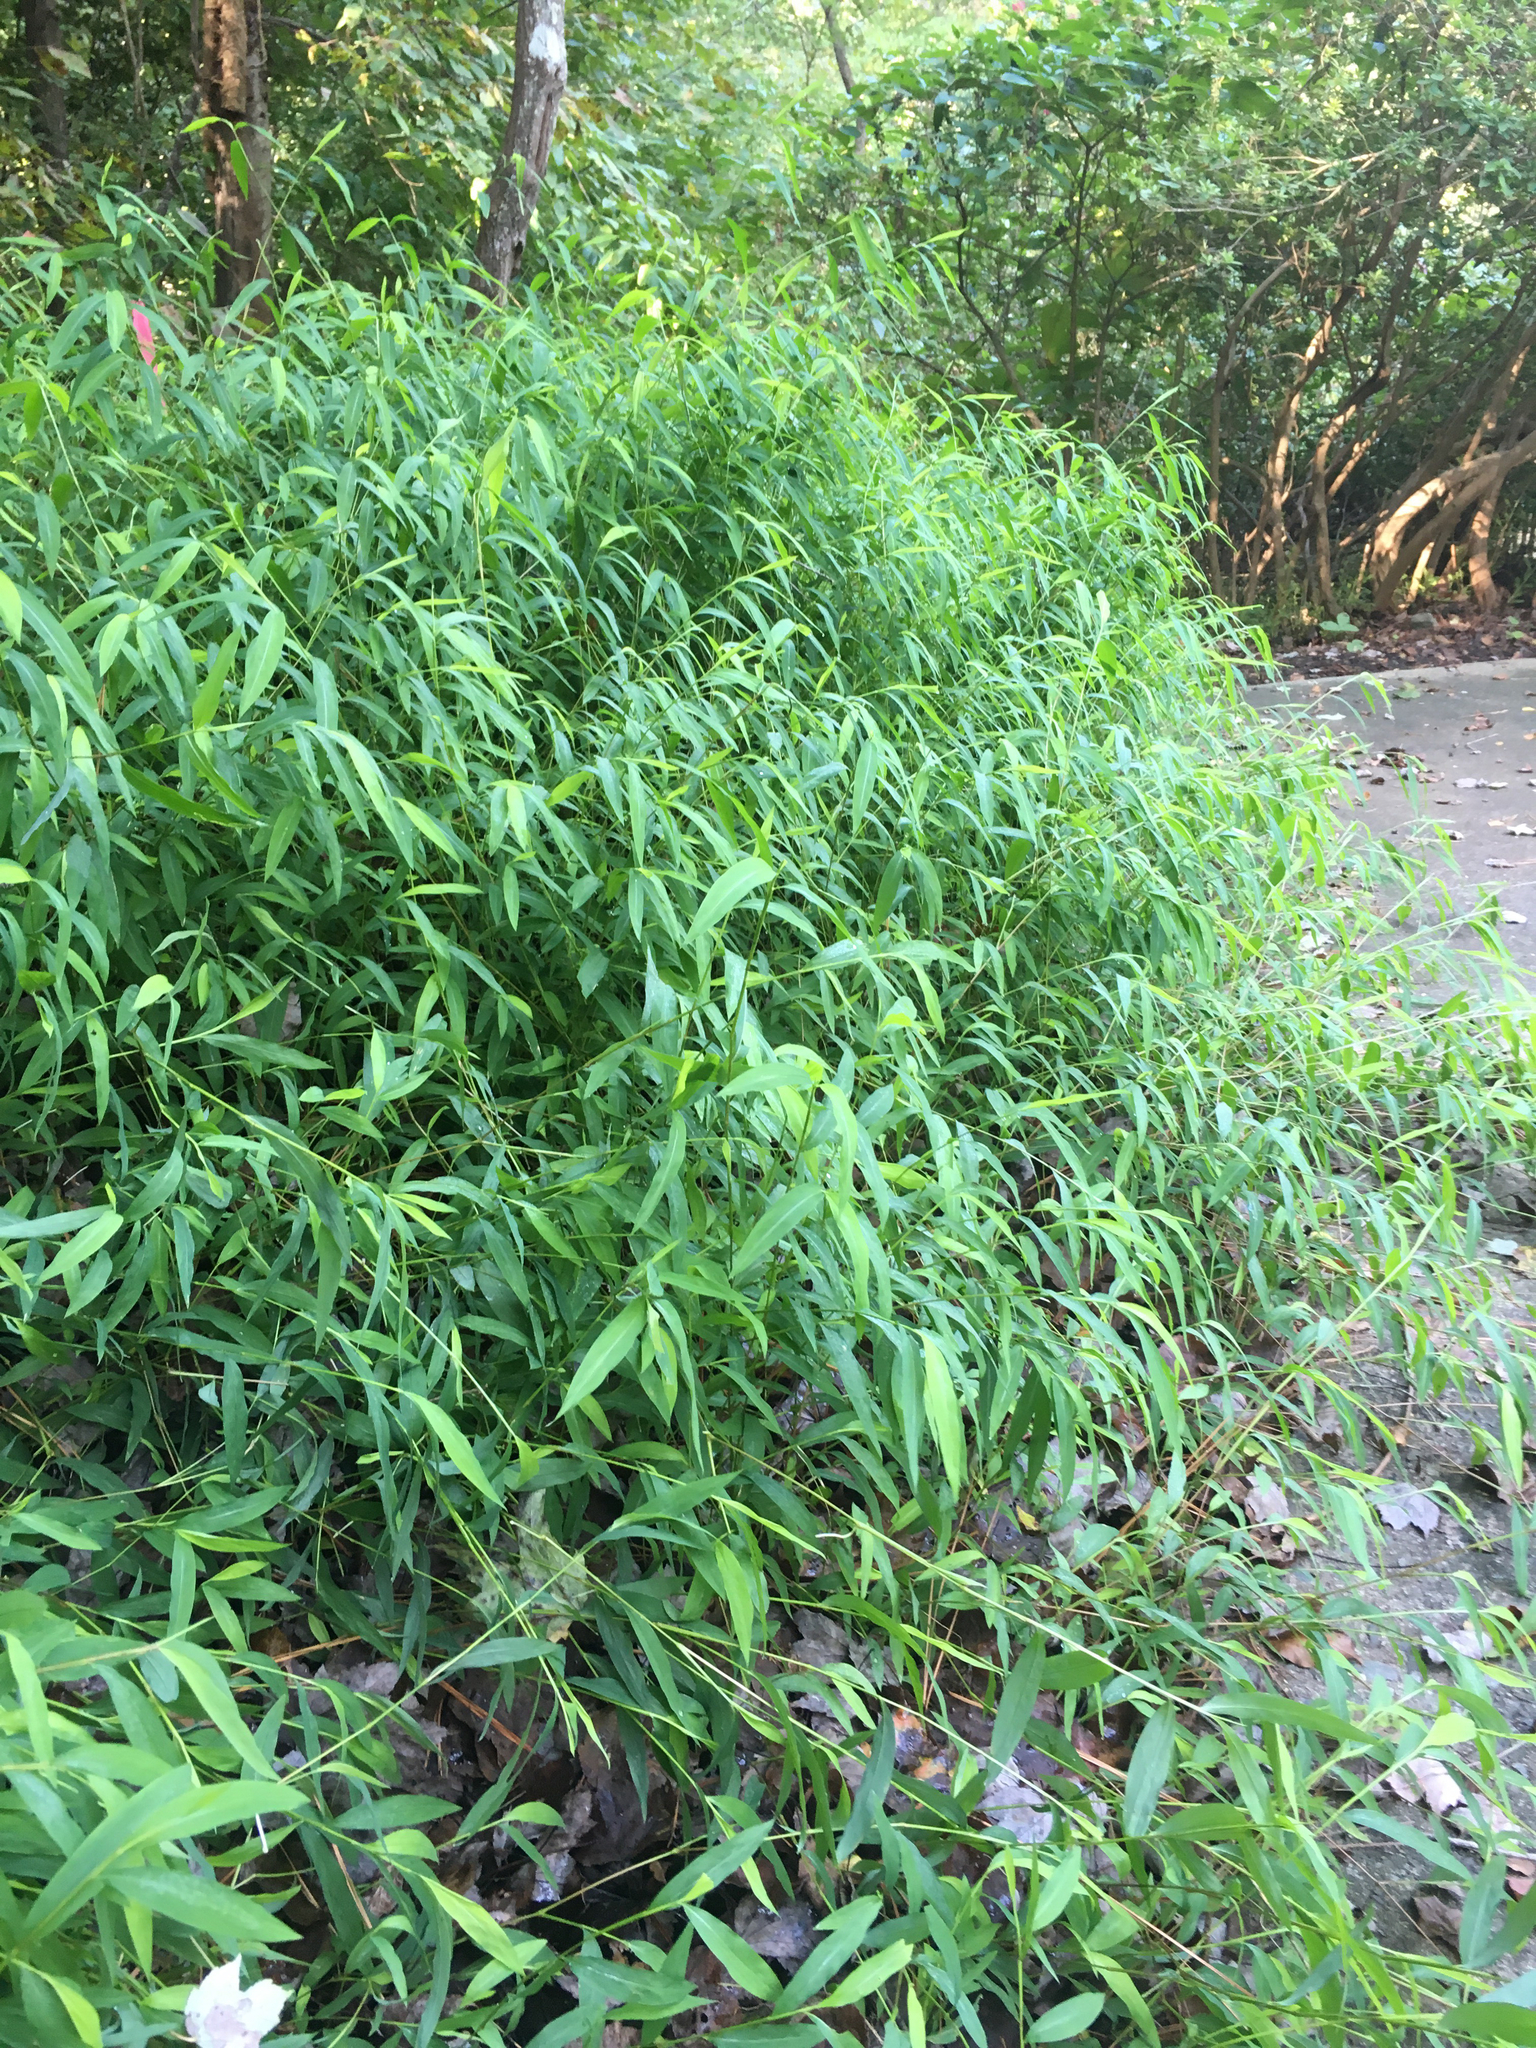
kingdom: Plantae
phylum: Tracheophyta
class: Liliopsida
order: Poales
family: Poaceae
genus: Microstegium
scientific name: Microstegium vimineum
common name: Japanese stiltgrass
